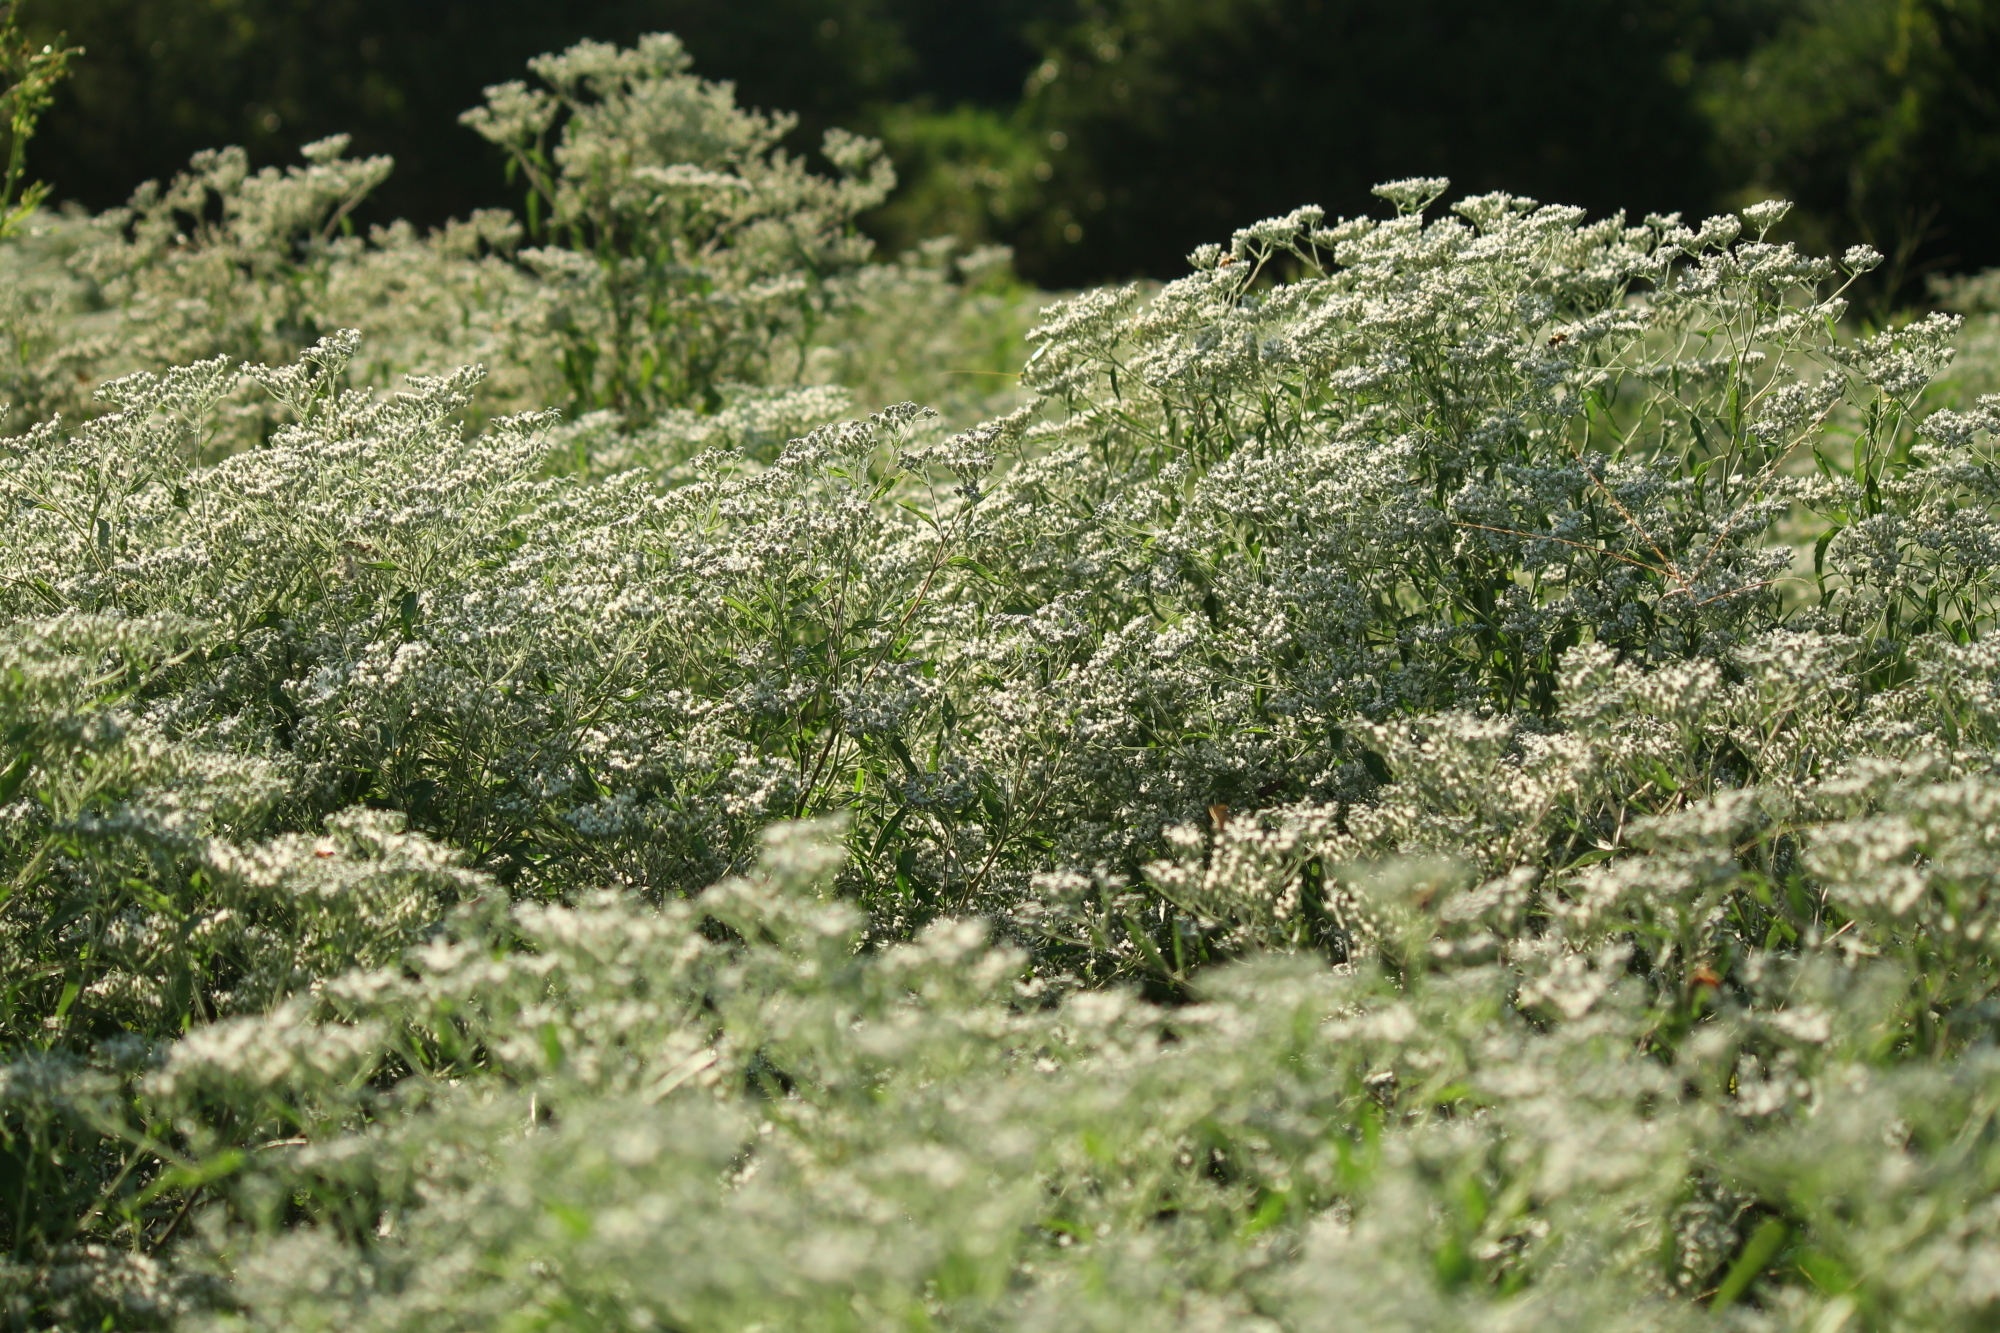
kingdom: Plantae
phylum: Tracheophyta
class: Magnoliopsida
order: Asterales
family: Asteraceae
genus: Eupatorium
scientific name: Eupatorium serotinum
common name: Late boneset
